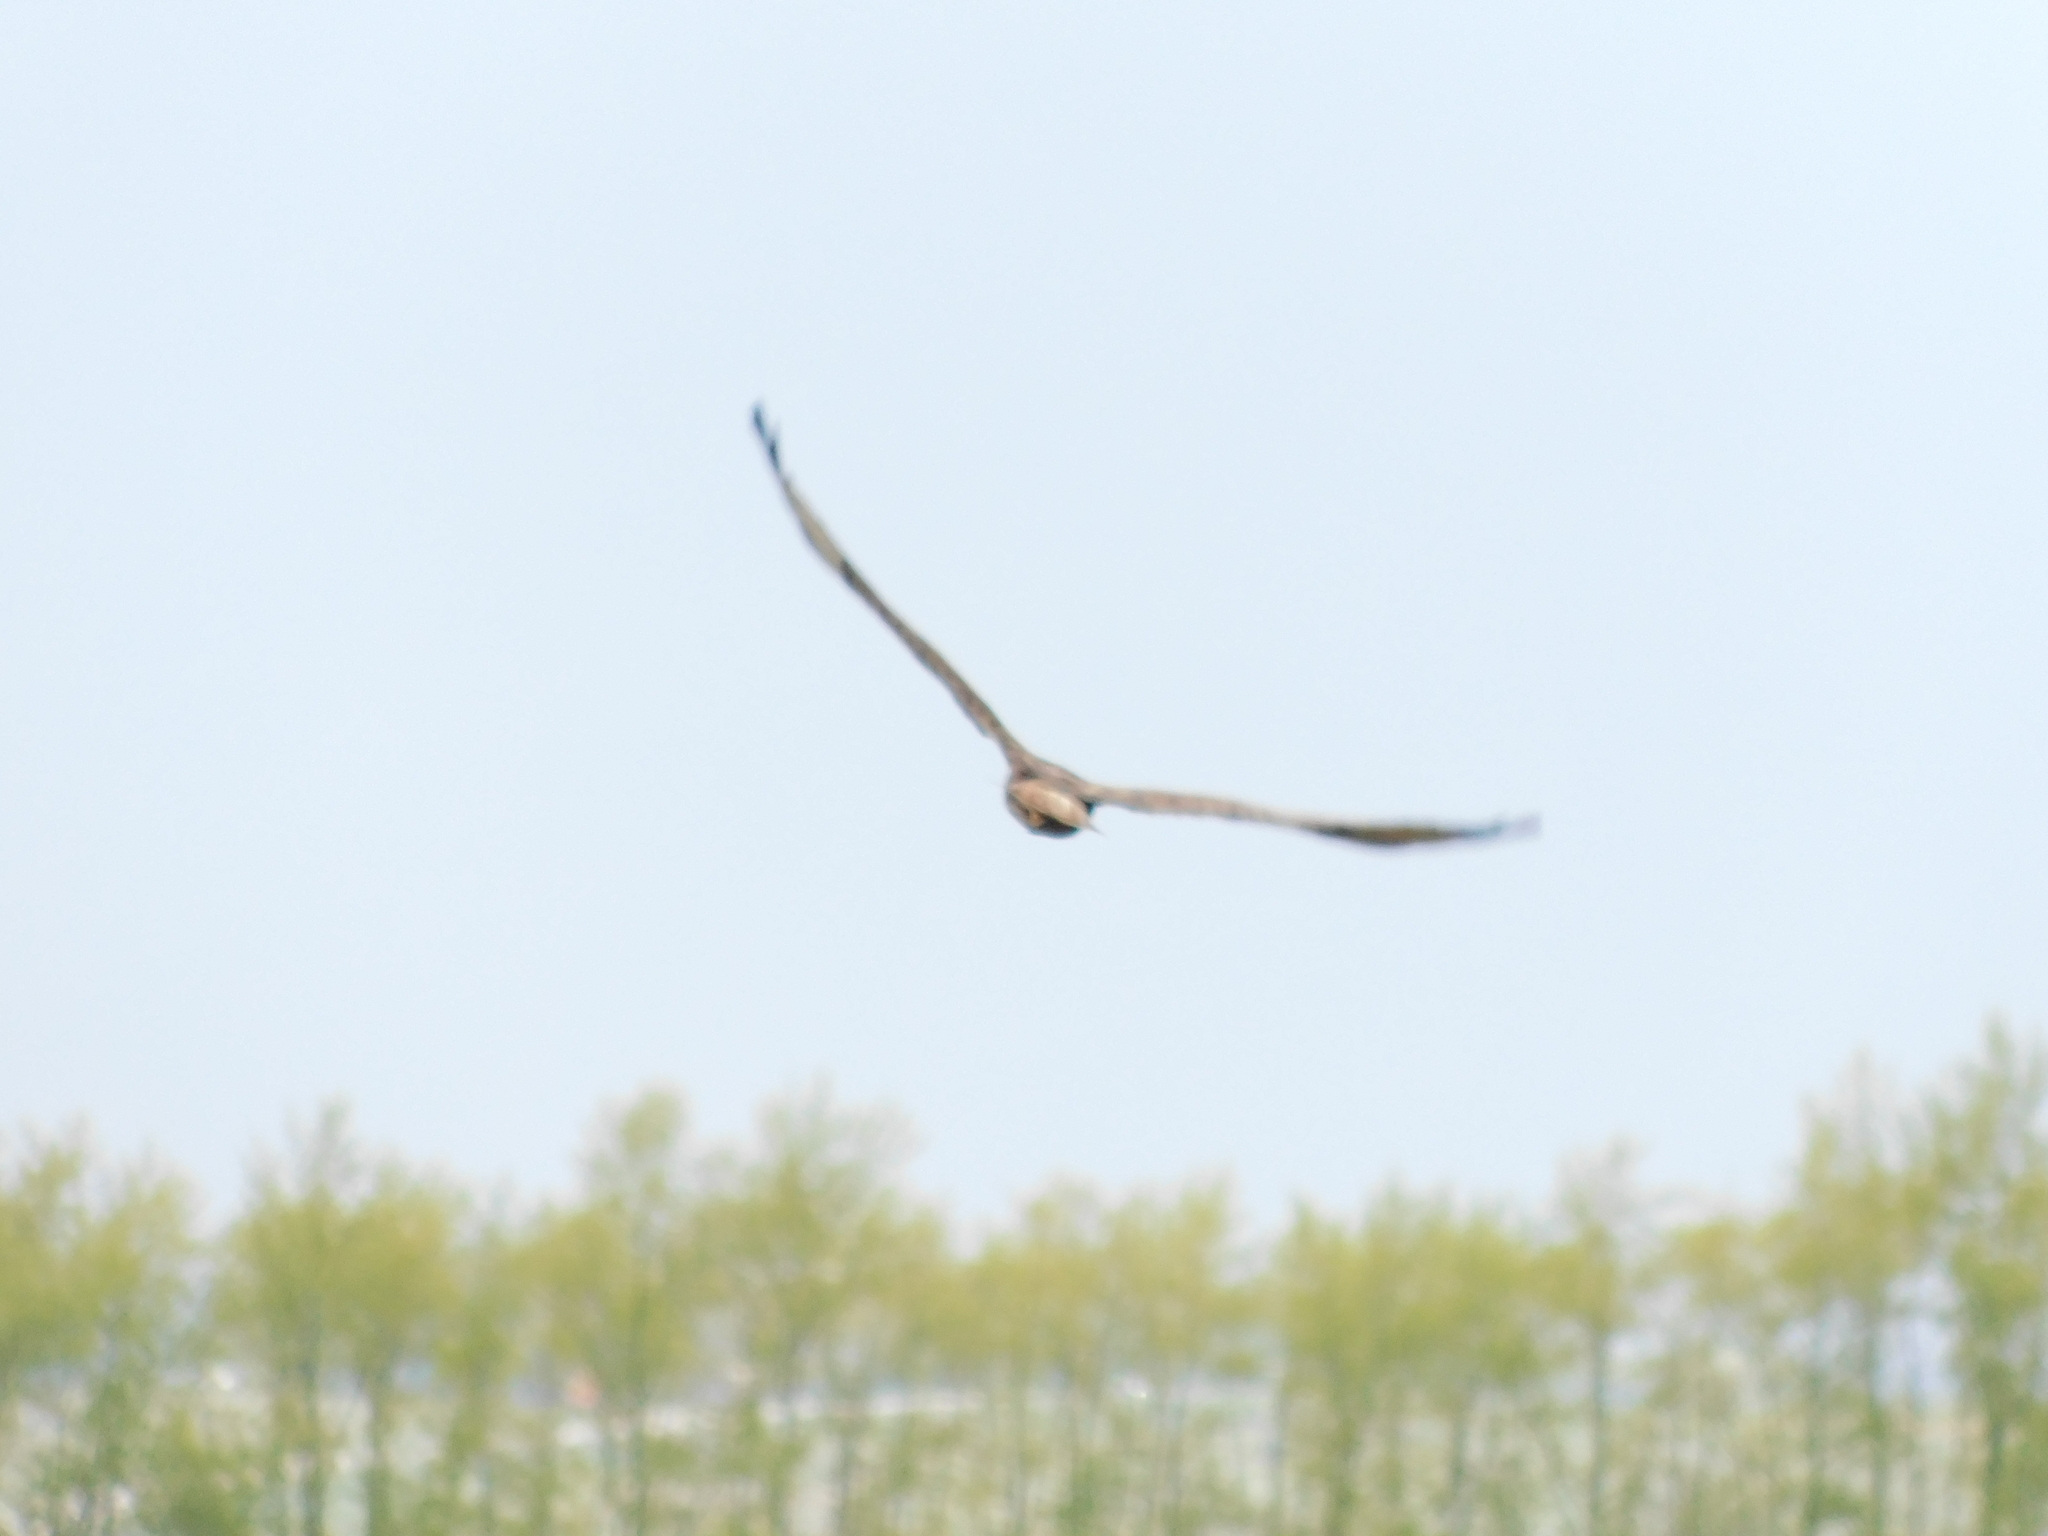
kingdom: Animalia
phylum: Chordata
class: Aves
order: Accipitriformes
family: Accipitridae
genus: Buteo
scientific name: Buteo buteo
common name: Common buzzard
